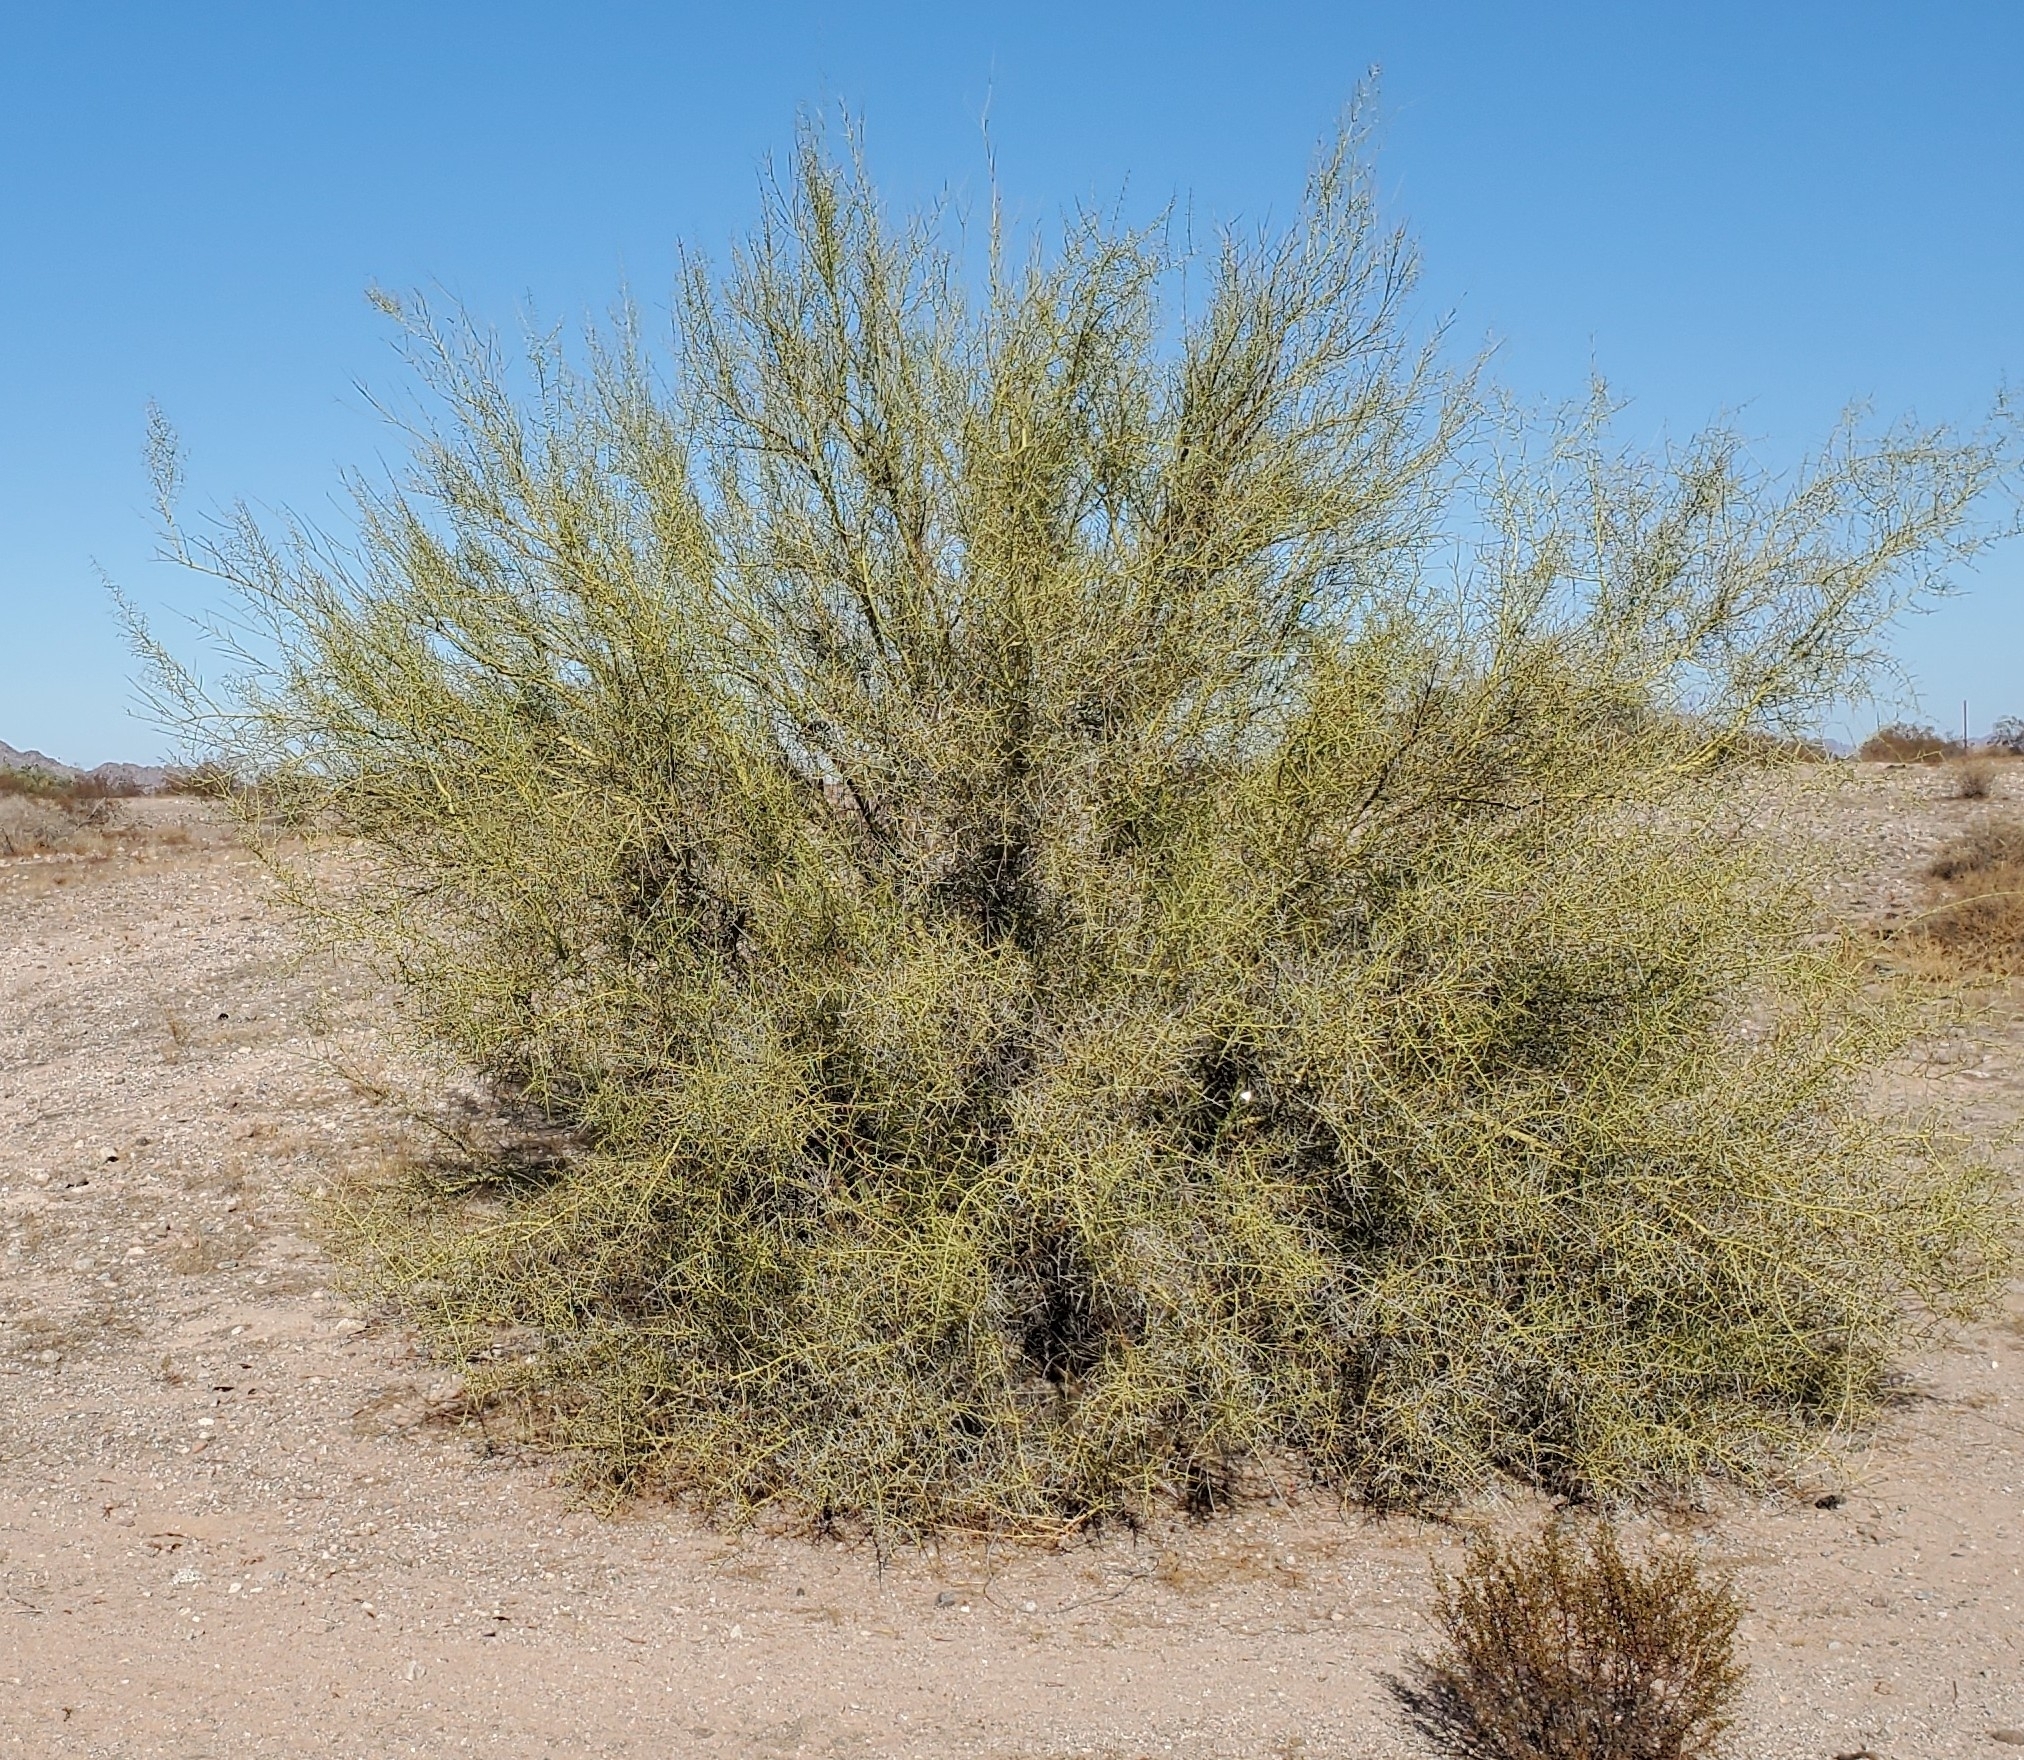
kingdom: Plantae
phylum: Tracheophyta
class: Magnoliopsida
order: Fabales
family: Fabaceae
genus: Parkinsonia
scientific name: Parkinsonia microphylla
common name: Yellow paloverde
